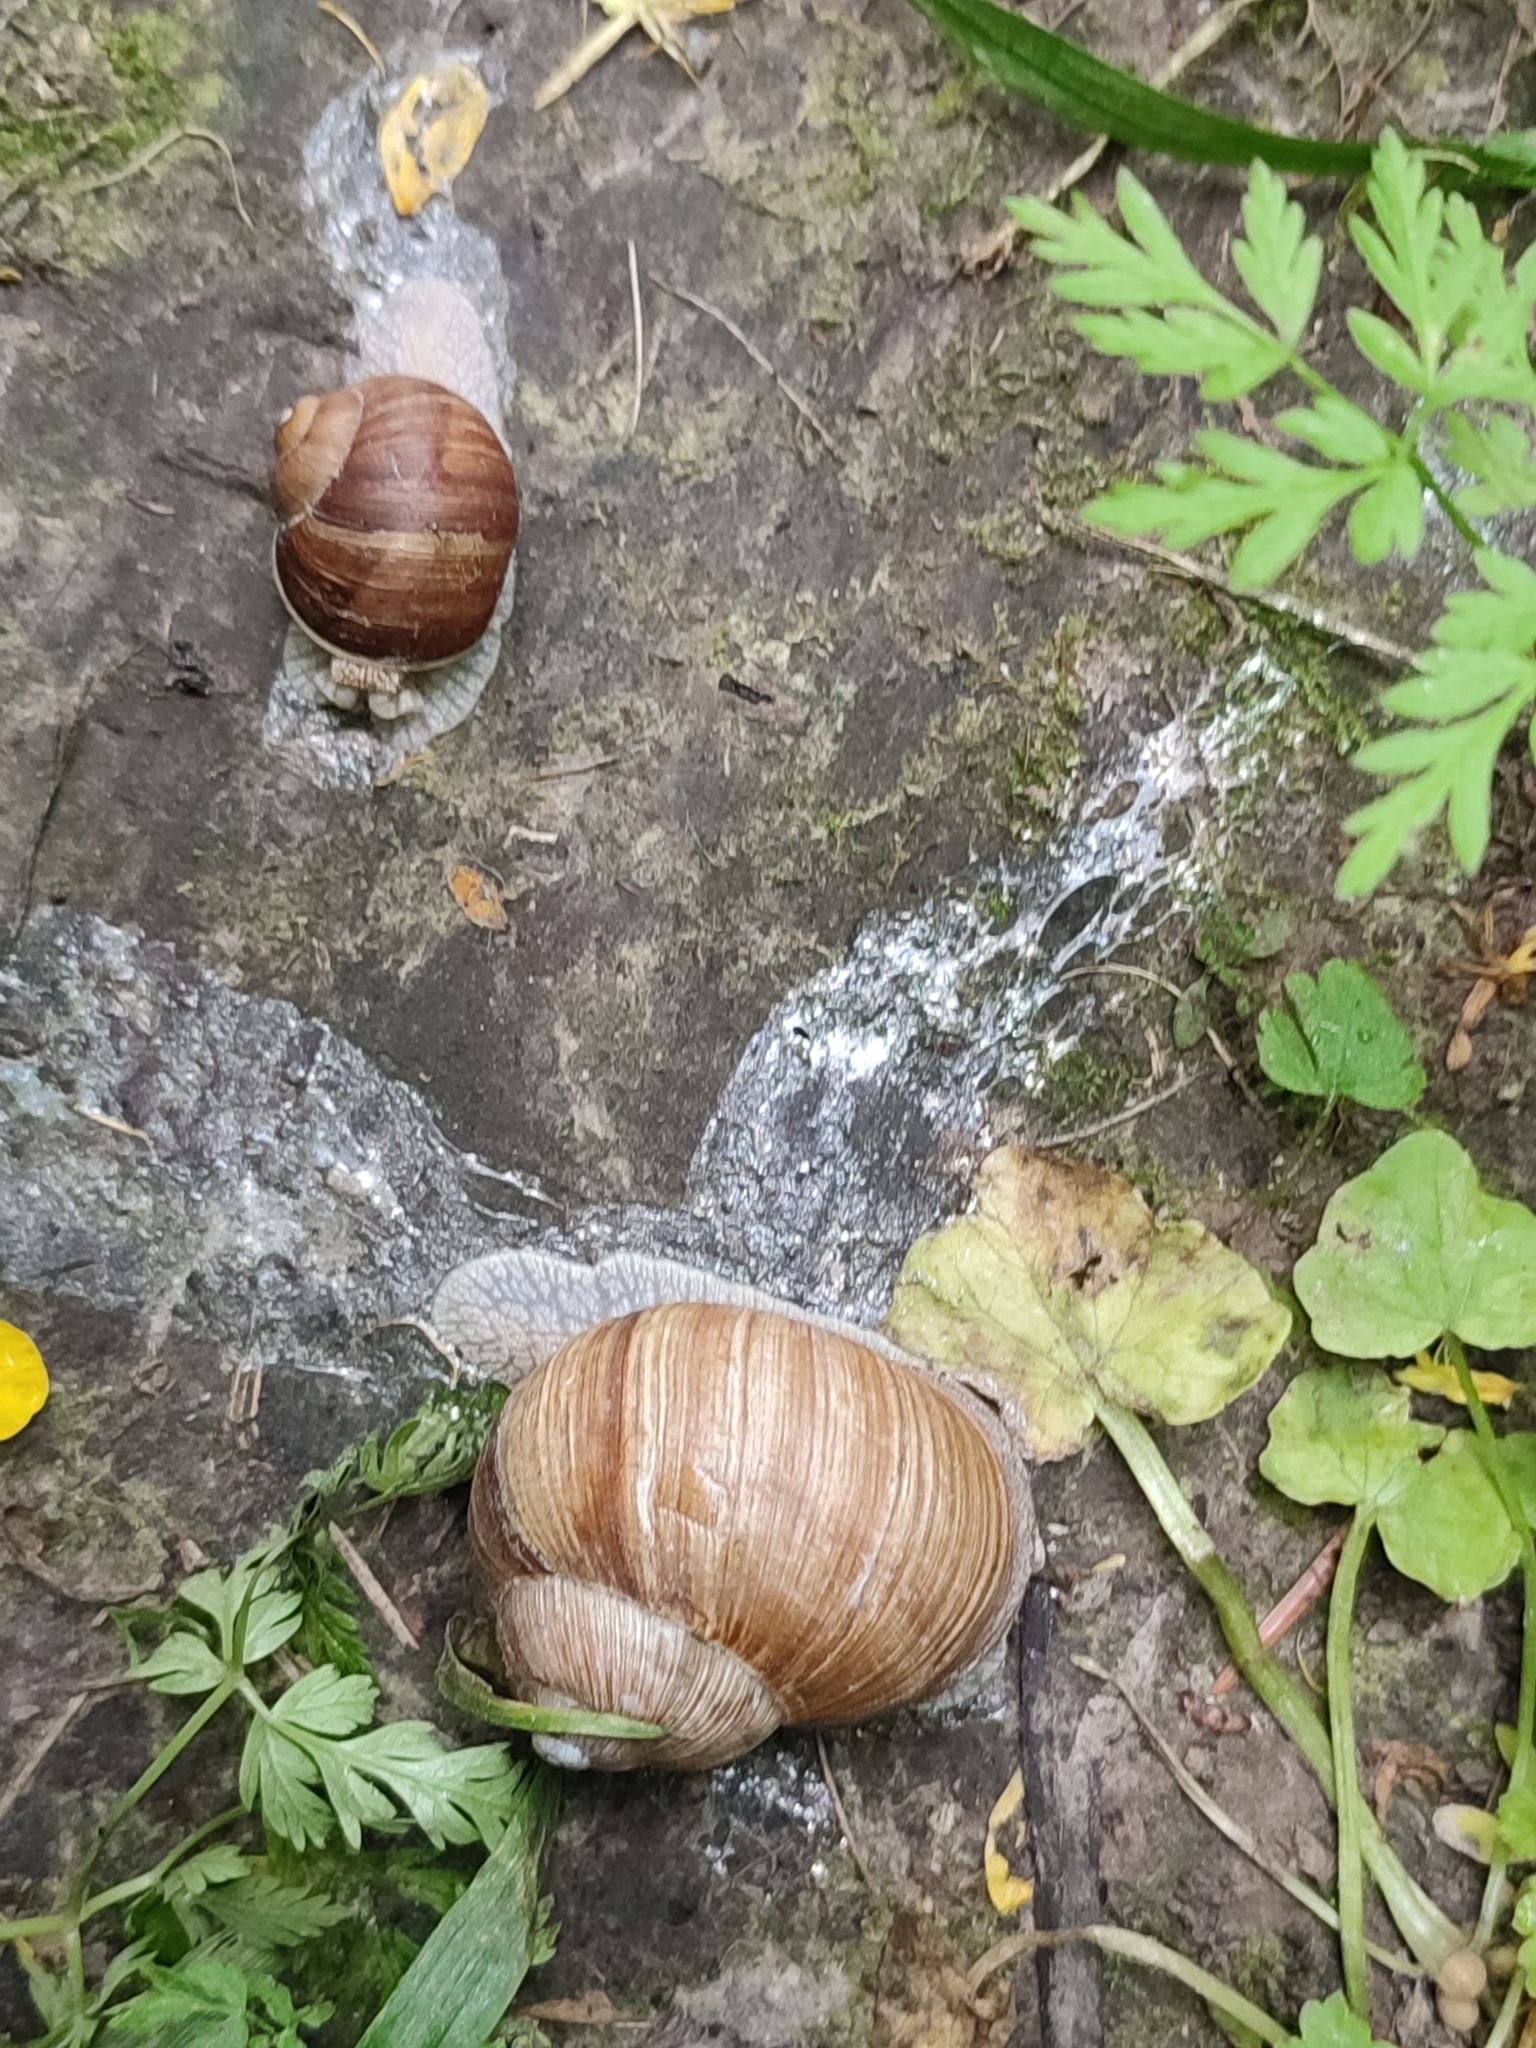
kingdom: Animalia
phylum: Mollusca
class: Gastropoda
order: Stylommatophora
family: Helicidae
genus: Helix
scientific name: Helix pomatia
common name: Roman snail
